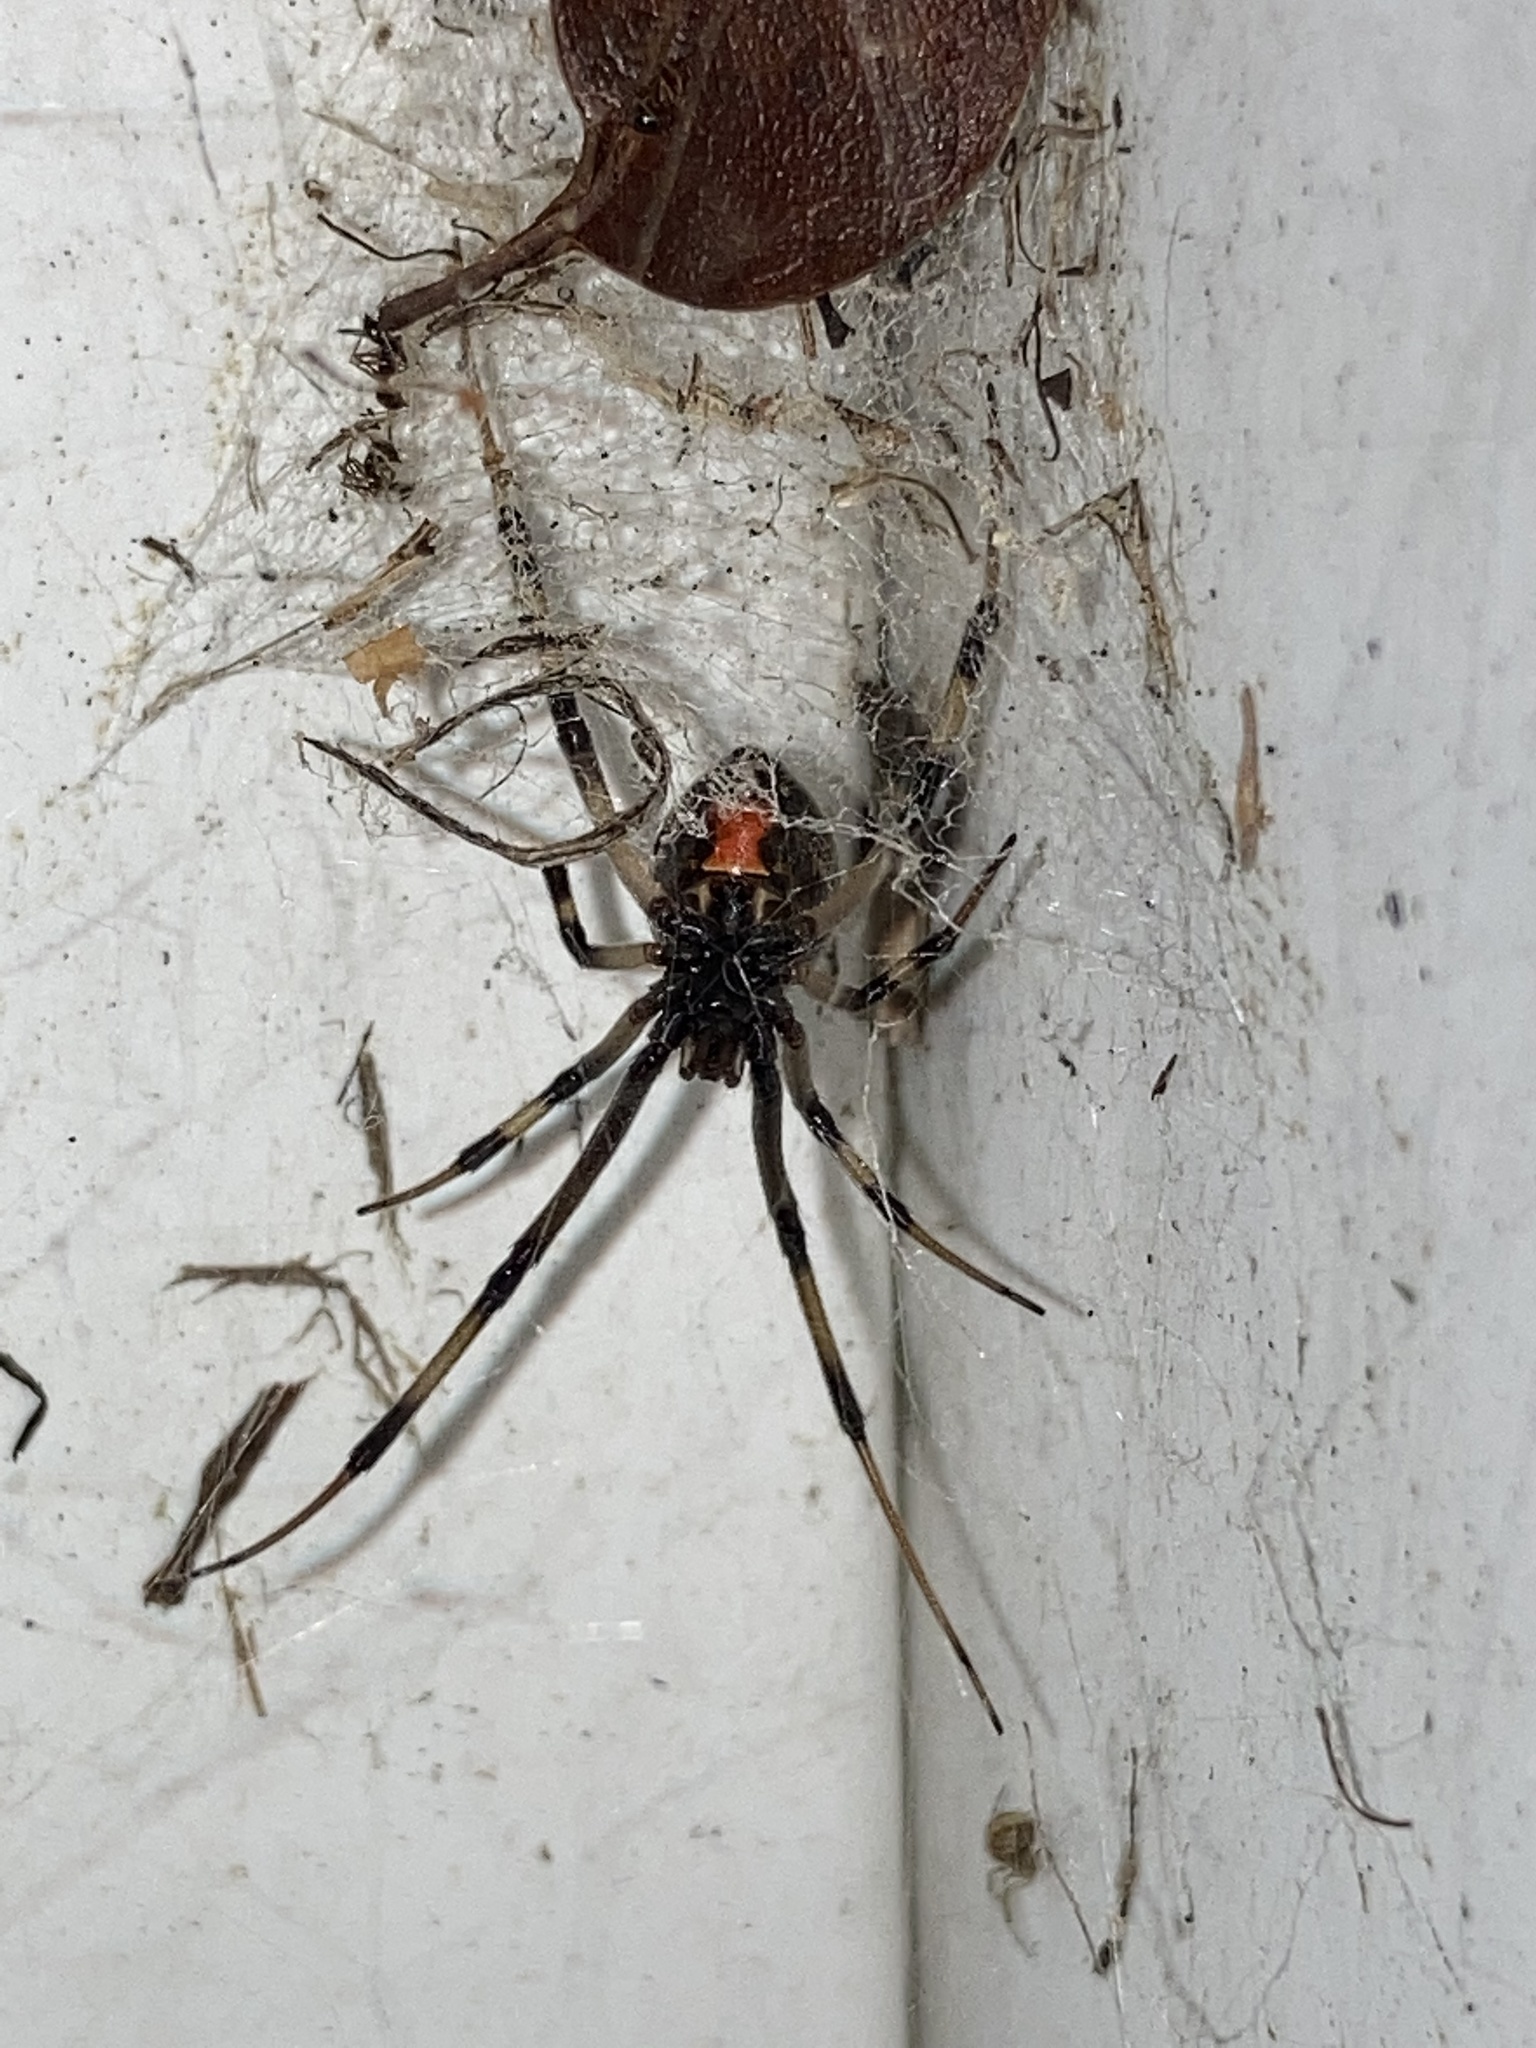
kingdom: Animalia
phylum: Arthropoda
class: Arachnida
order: Araneae
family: Theridiidae
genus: Latrodectus
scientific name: Latrodectus geometricus
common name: Brown widow spider
